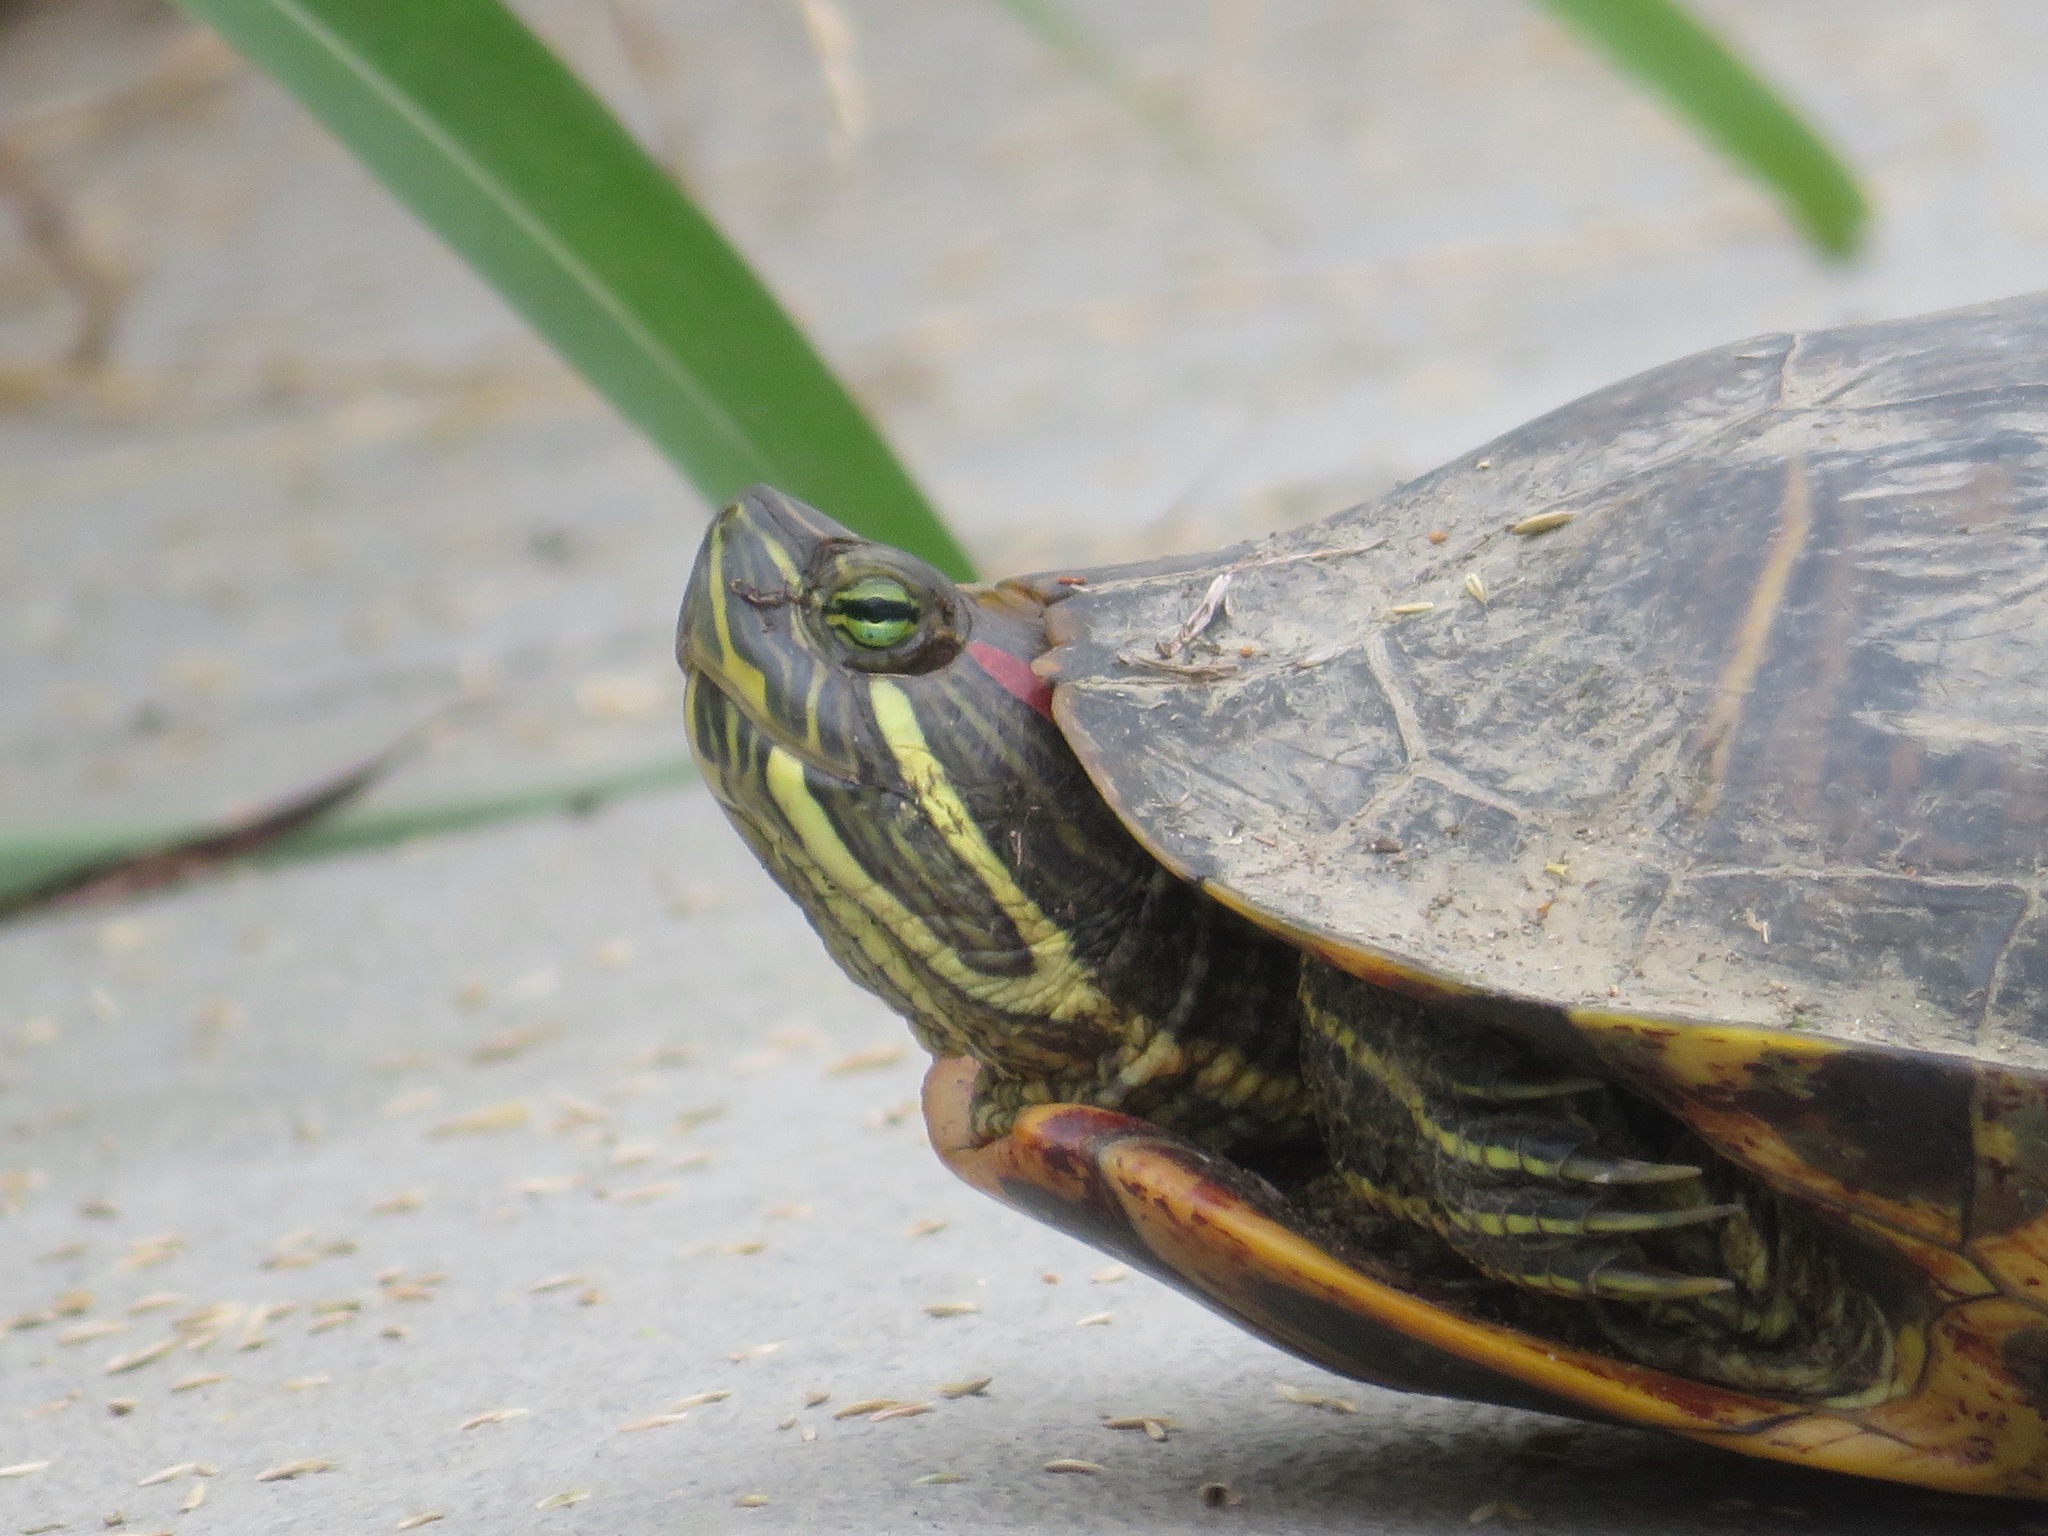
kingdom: Animalia
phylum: Chordata
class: Testudines
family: Emydidae
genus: Trachemys
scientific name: Trachemys scripta
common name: Slider
